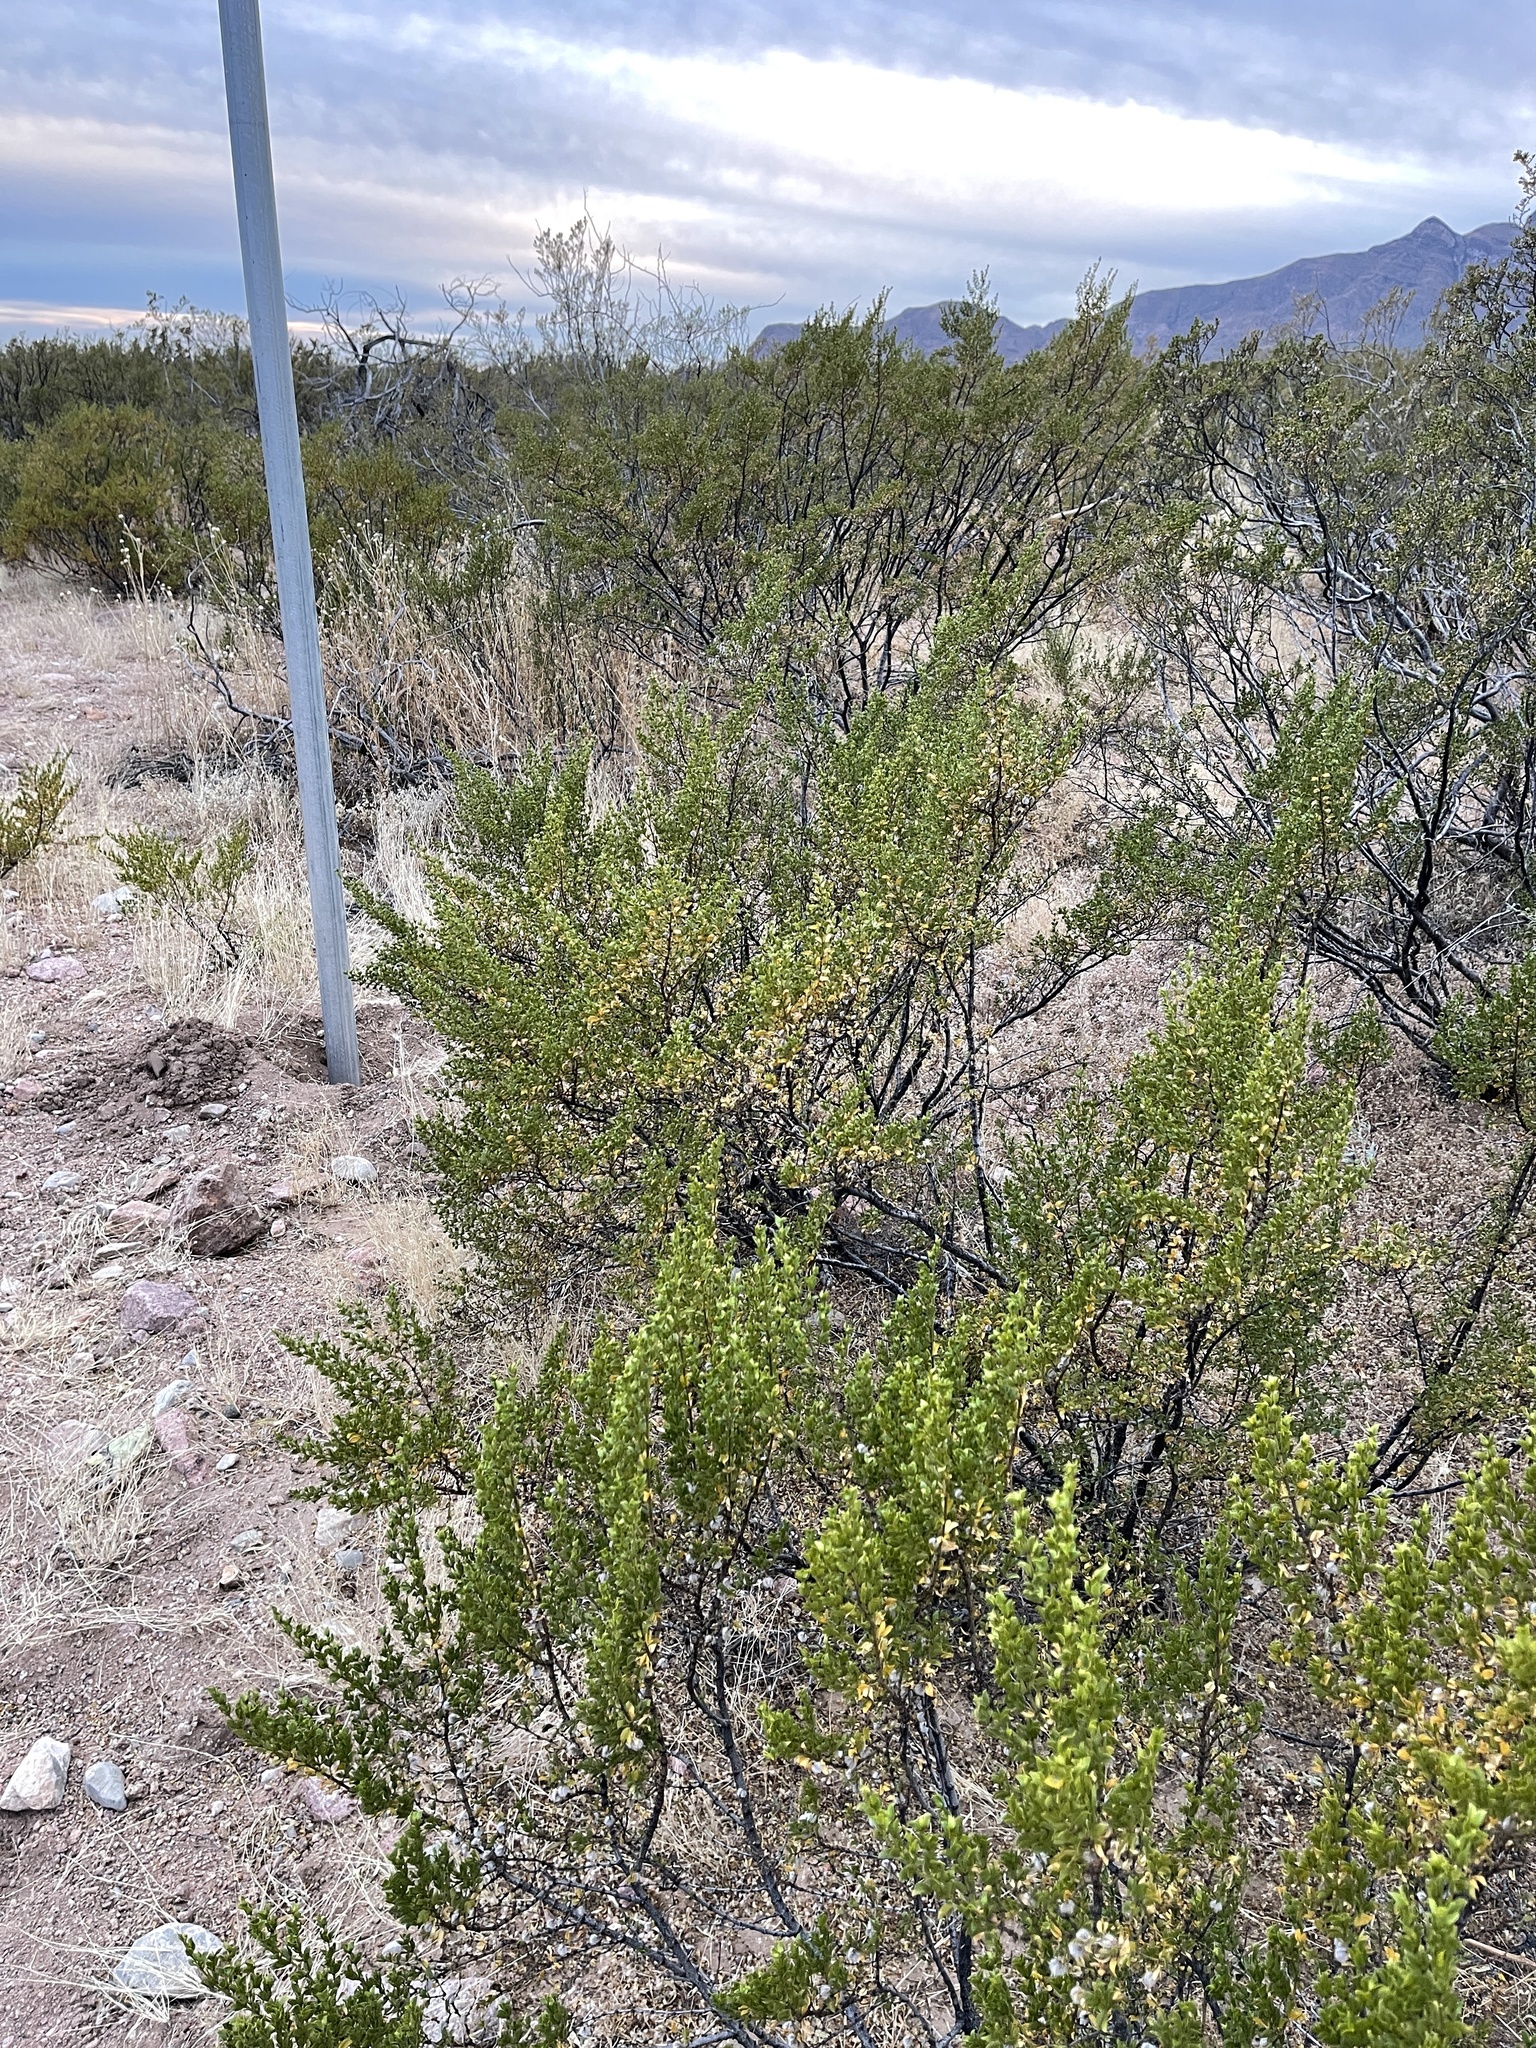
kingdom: Plantae
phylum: Tracheophyta
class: Magnoliopsida
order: Zygophyllales
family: Zygophyllaceae
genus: Larrea
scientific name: Larrea tridentata
